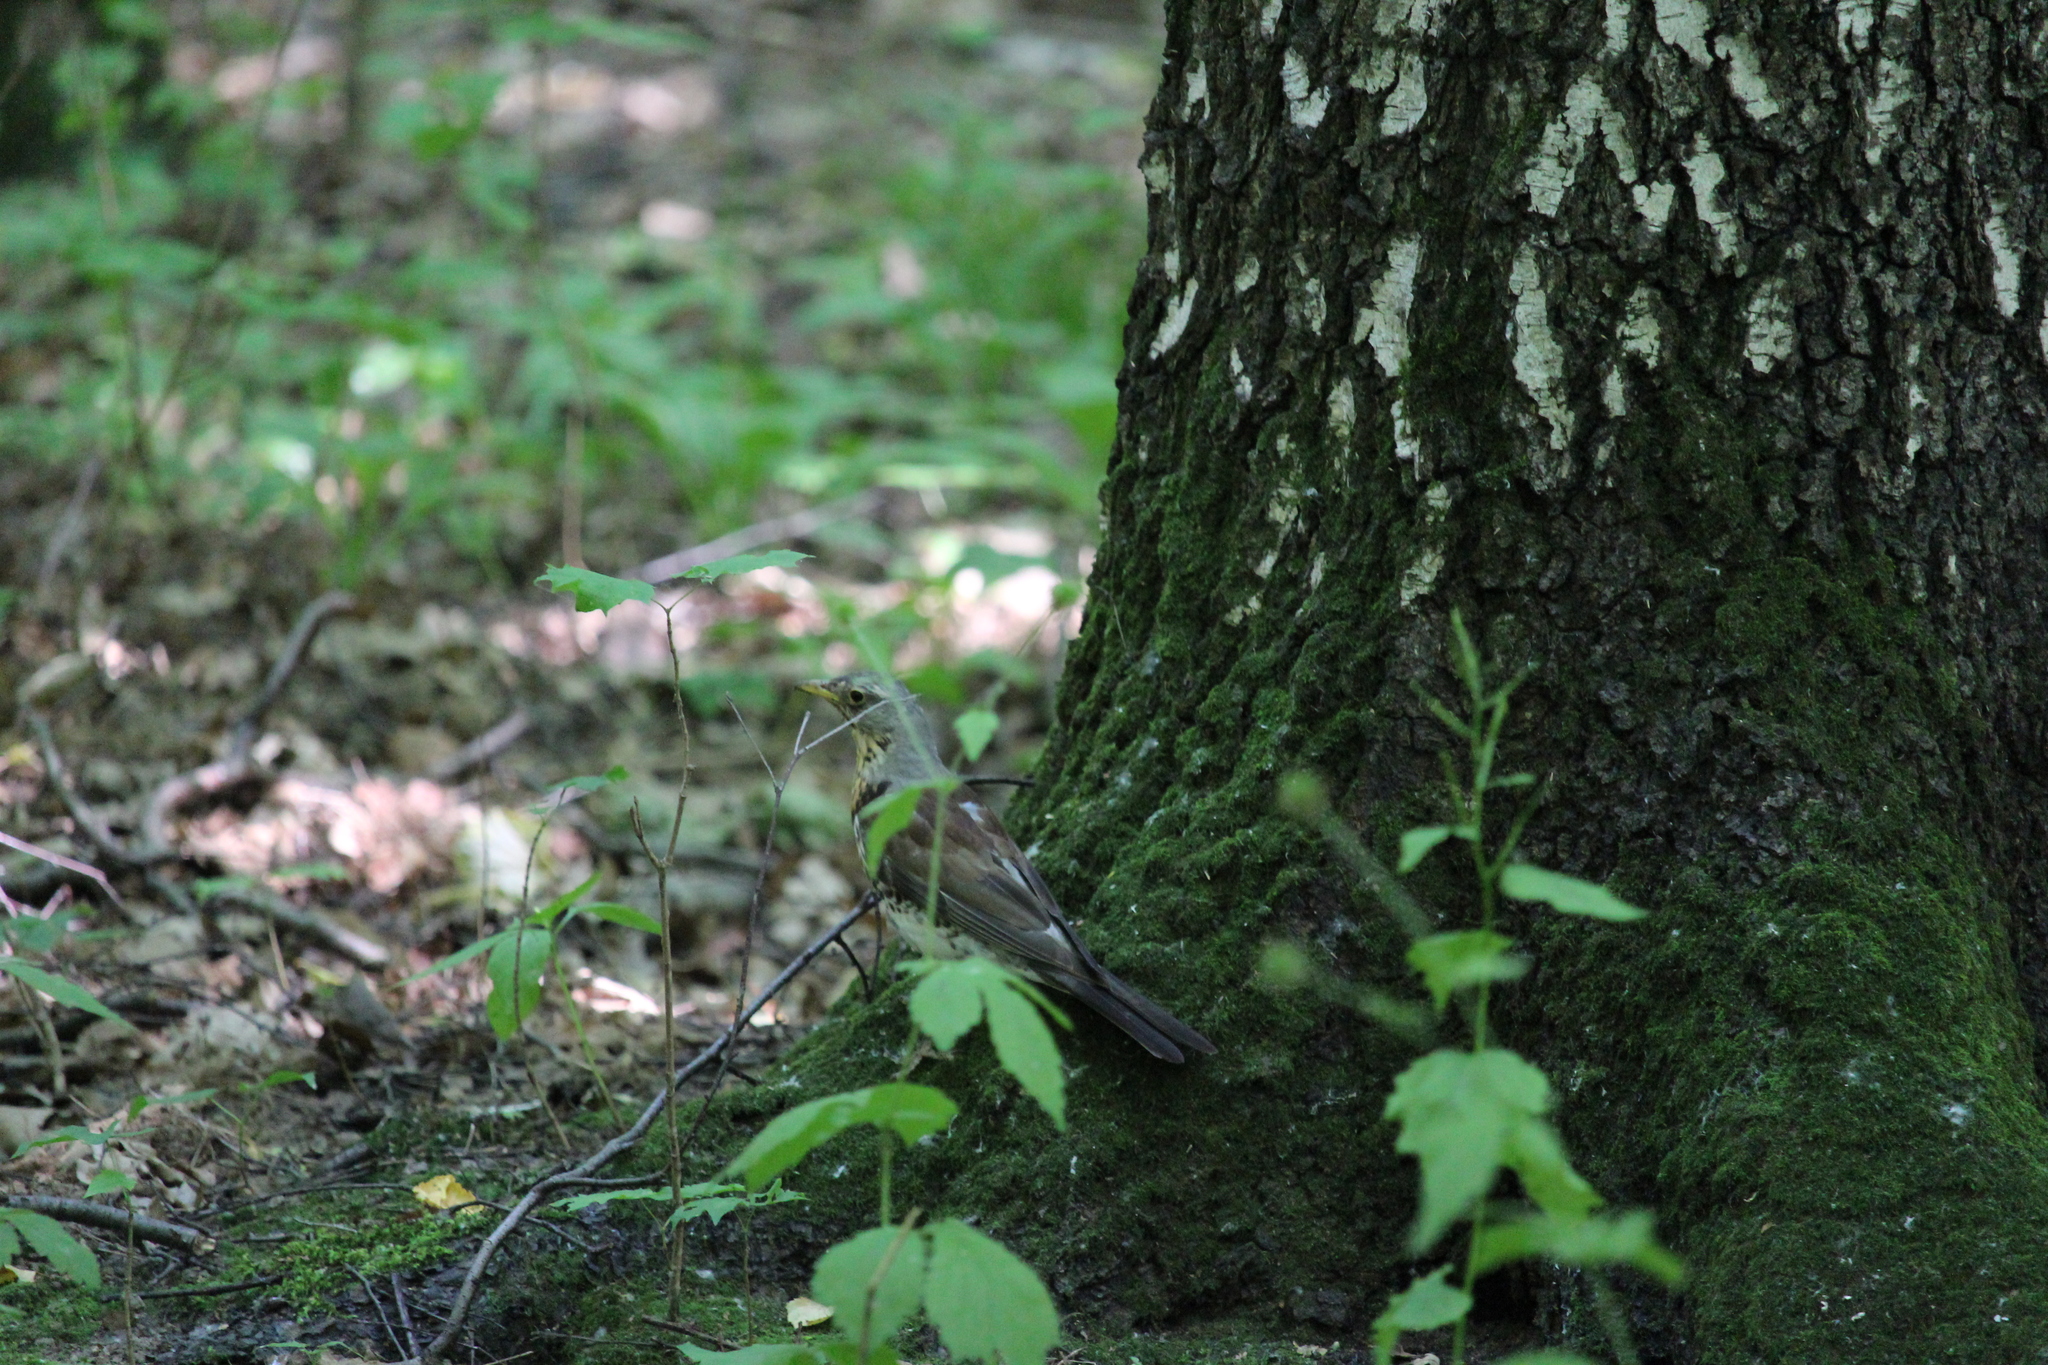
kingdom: Animalia
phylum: Chordata
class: Aves
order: Passeriformes
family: Turdidae
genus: Turdus
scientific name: Turdus pilaris
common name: Fieldfare
